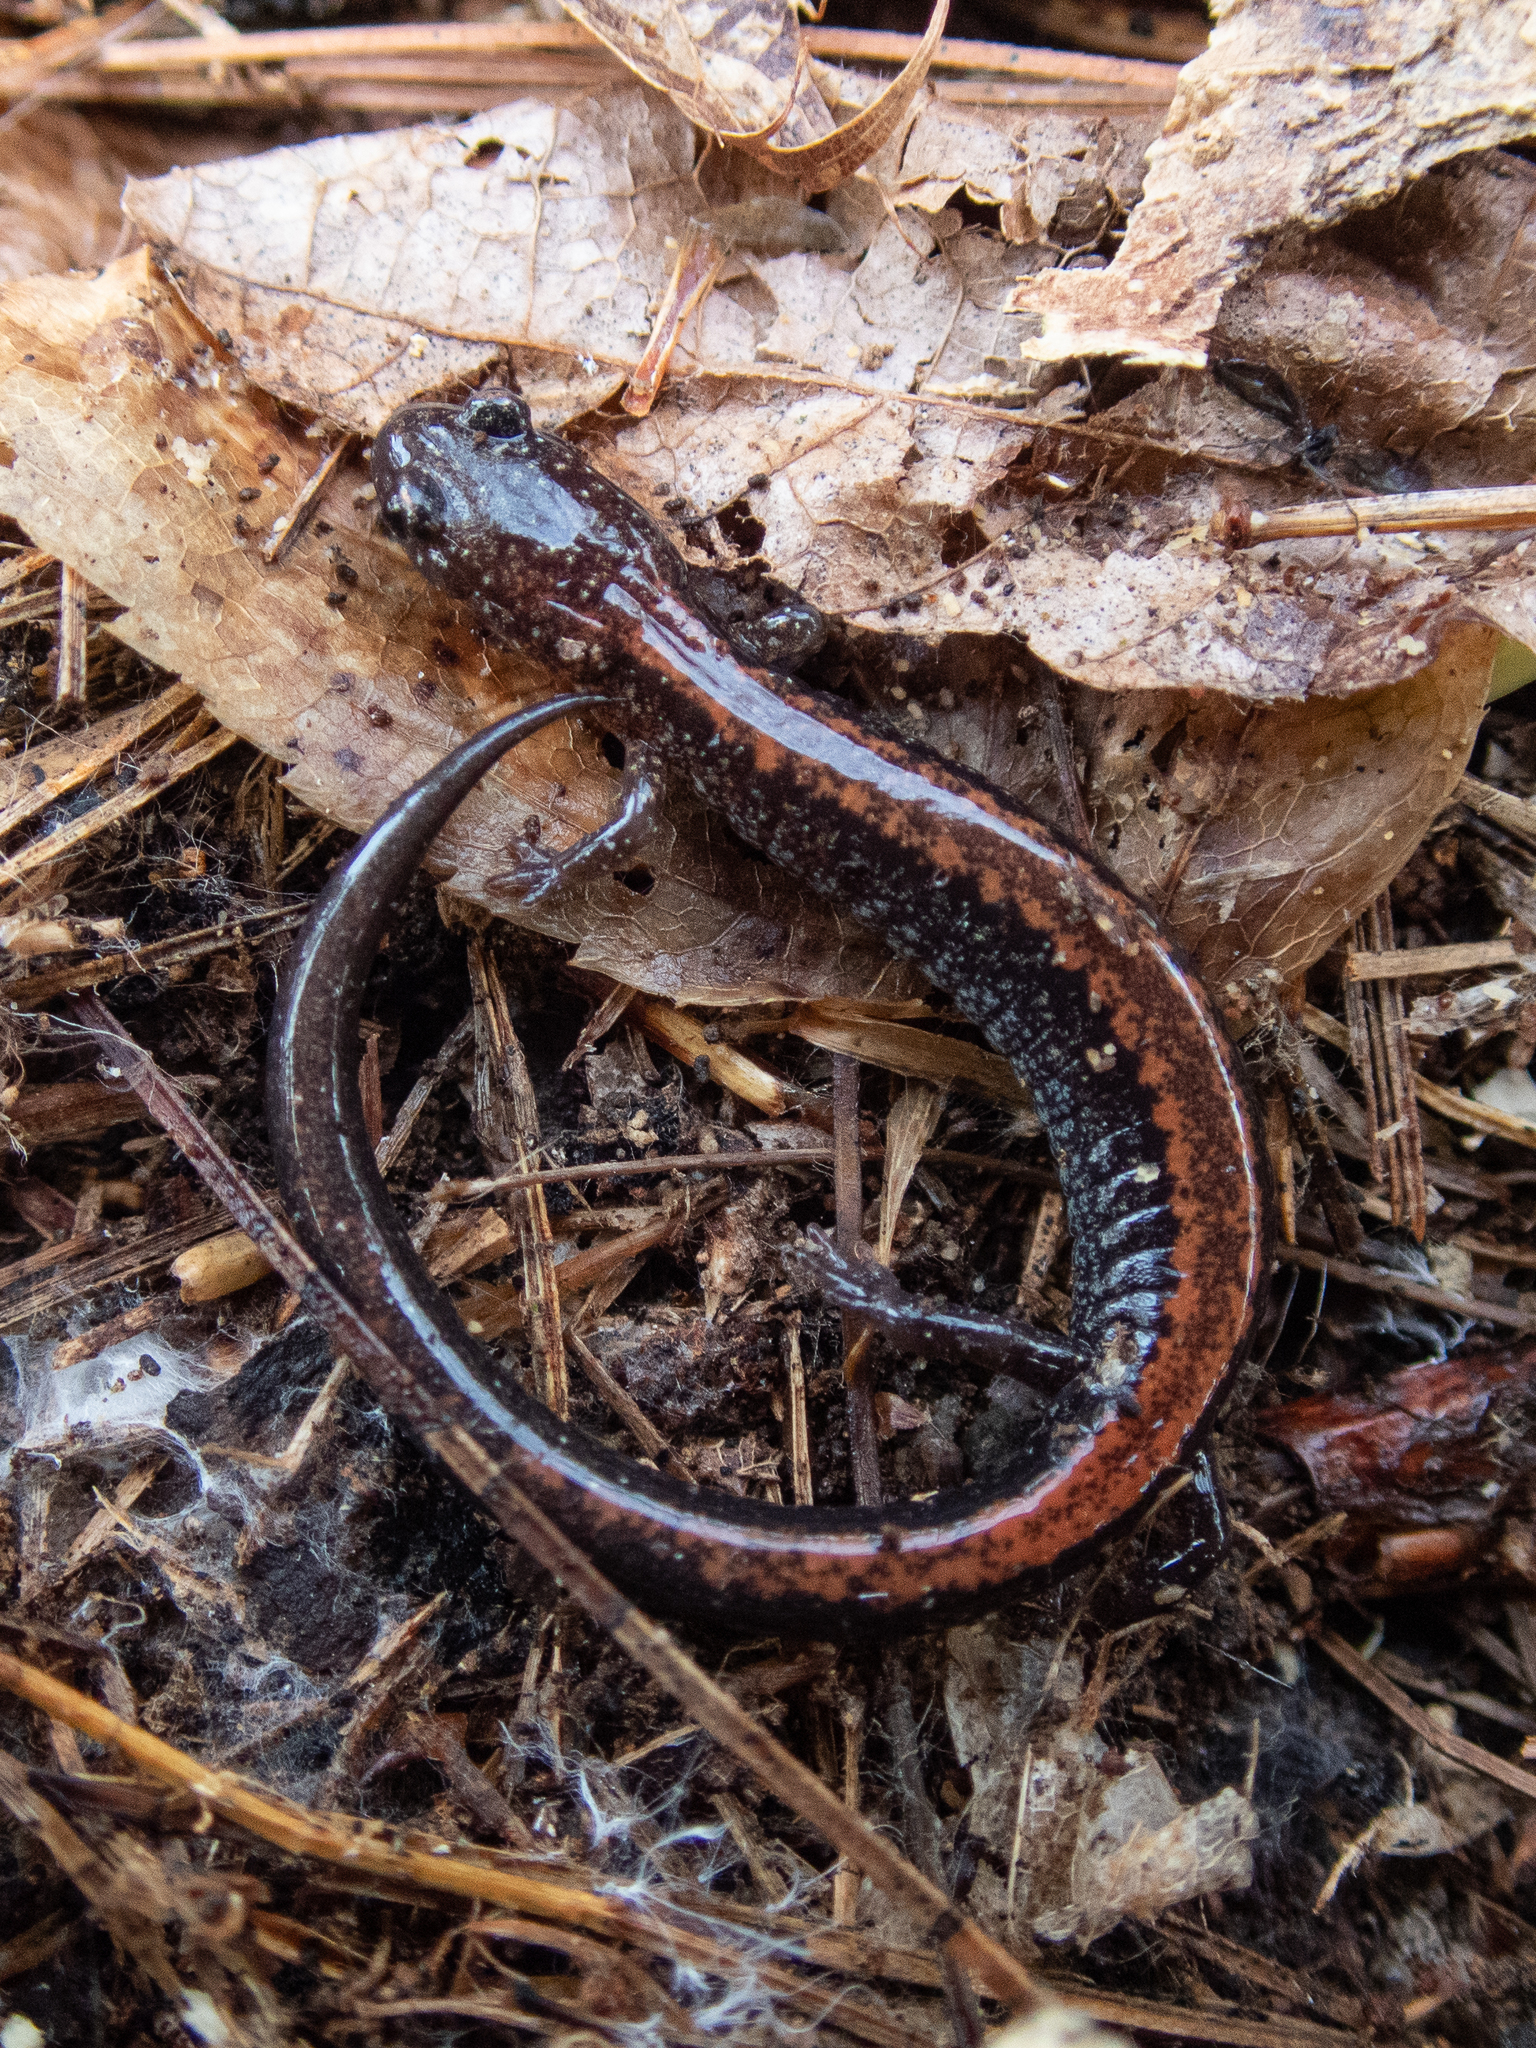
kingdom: Animalia
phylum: Chordata
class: Amphibia
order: Caudata
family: Plethodontidae
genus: Plethodon
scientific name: Plethodon cinereus
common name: Redback salamander
